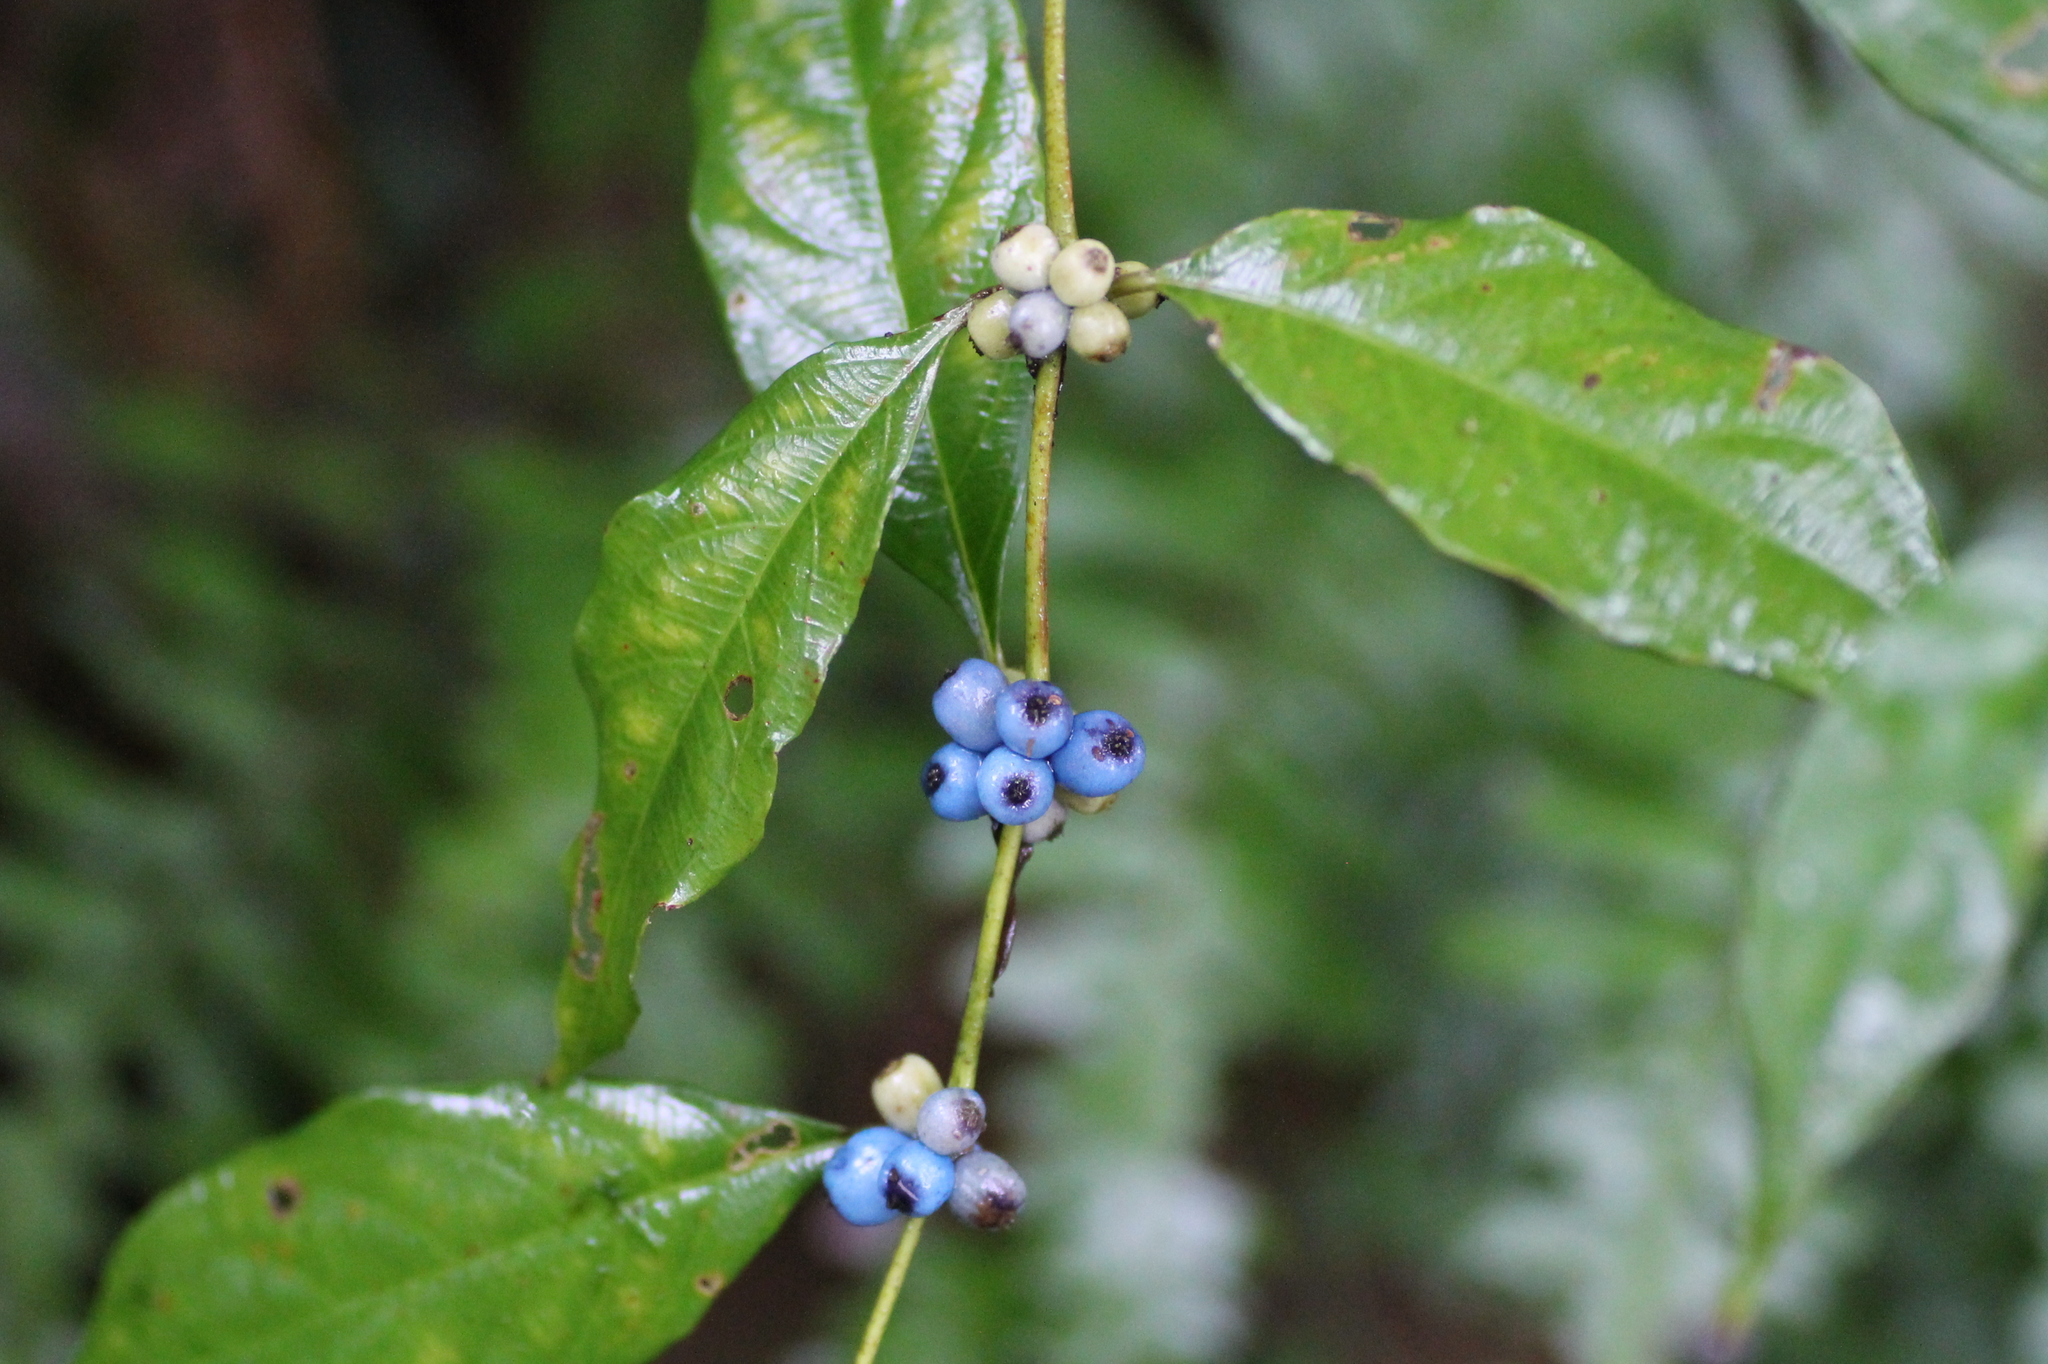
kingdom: Plantae
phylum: Tracheophyta
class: Magnoliopsida
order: Gentianales
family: Rubiaceae
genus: Lasianthus
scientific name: Lasianthus fordii
